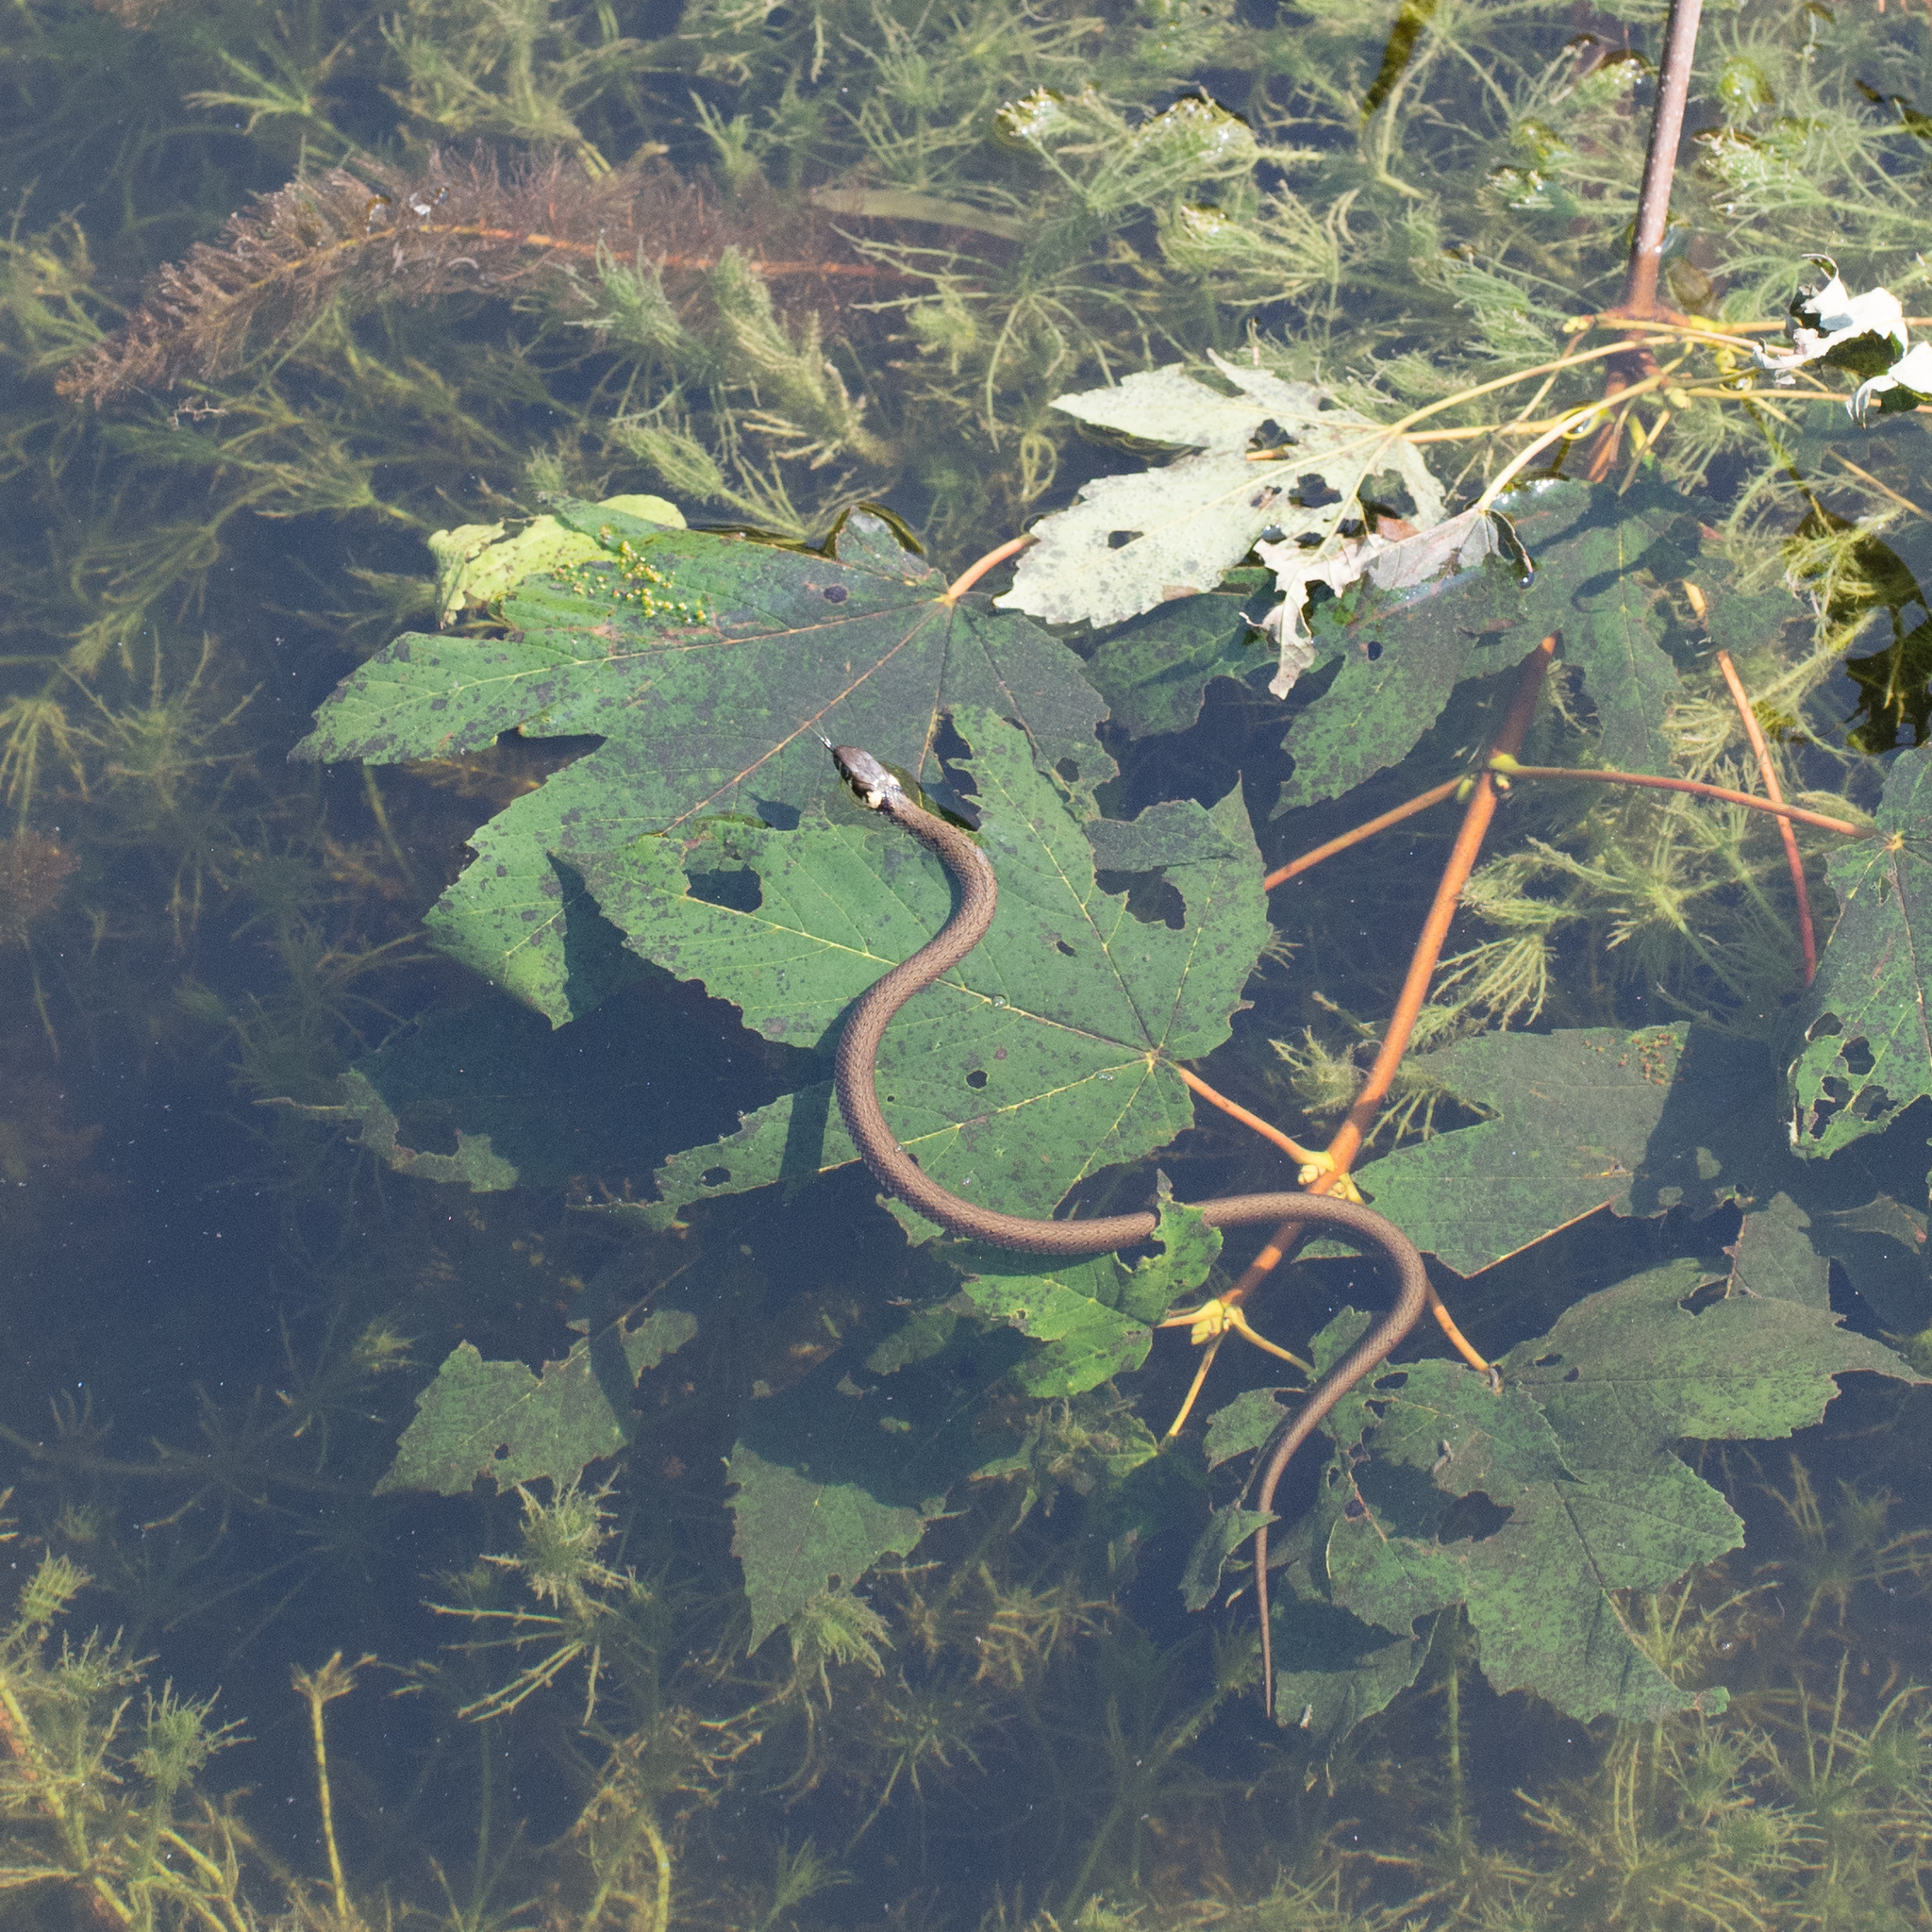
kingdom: Animalia
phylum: Chordata
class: Squamata
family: Colubridae
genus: Natrix
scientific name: Natrix natrix
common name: Grass snake
